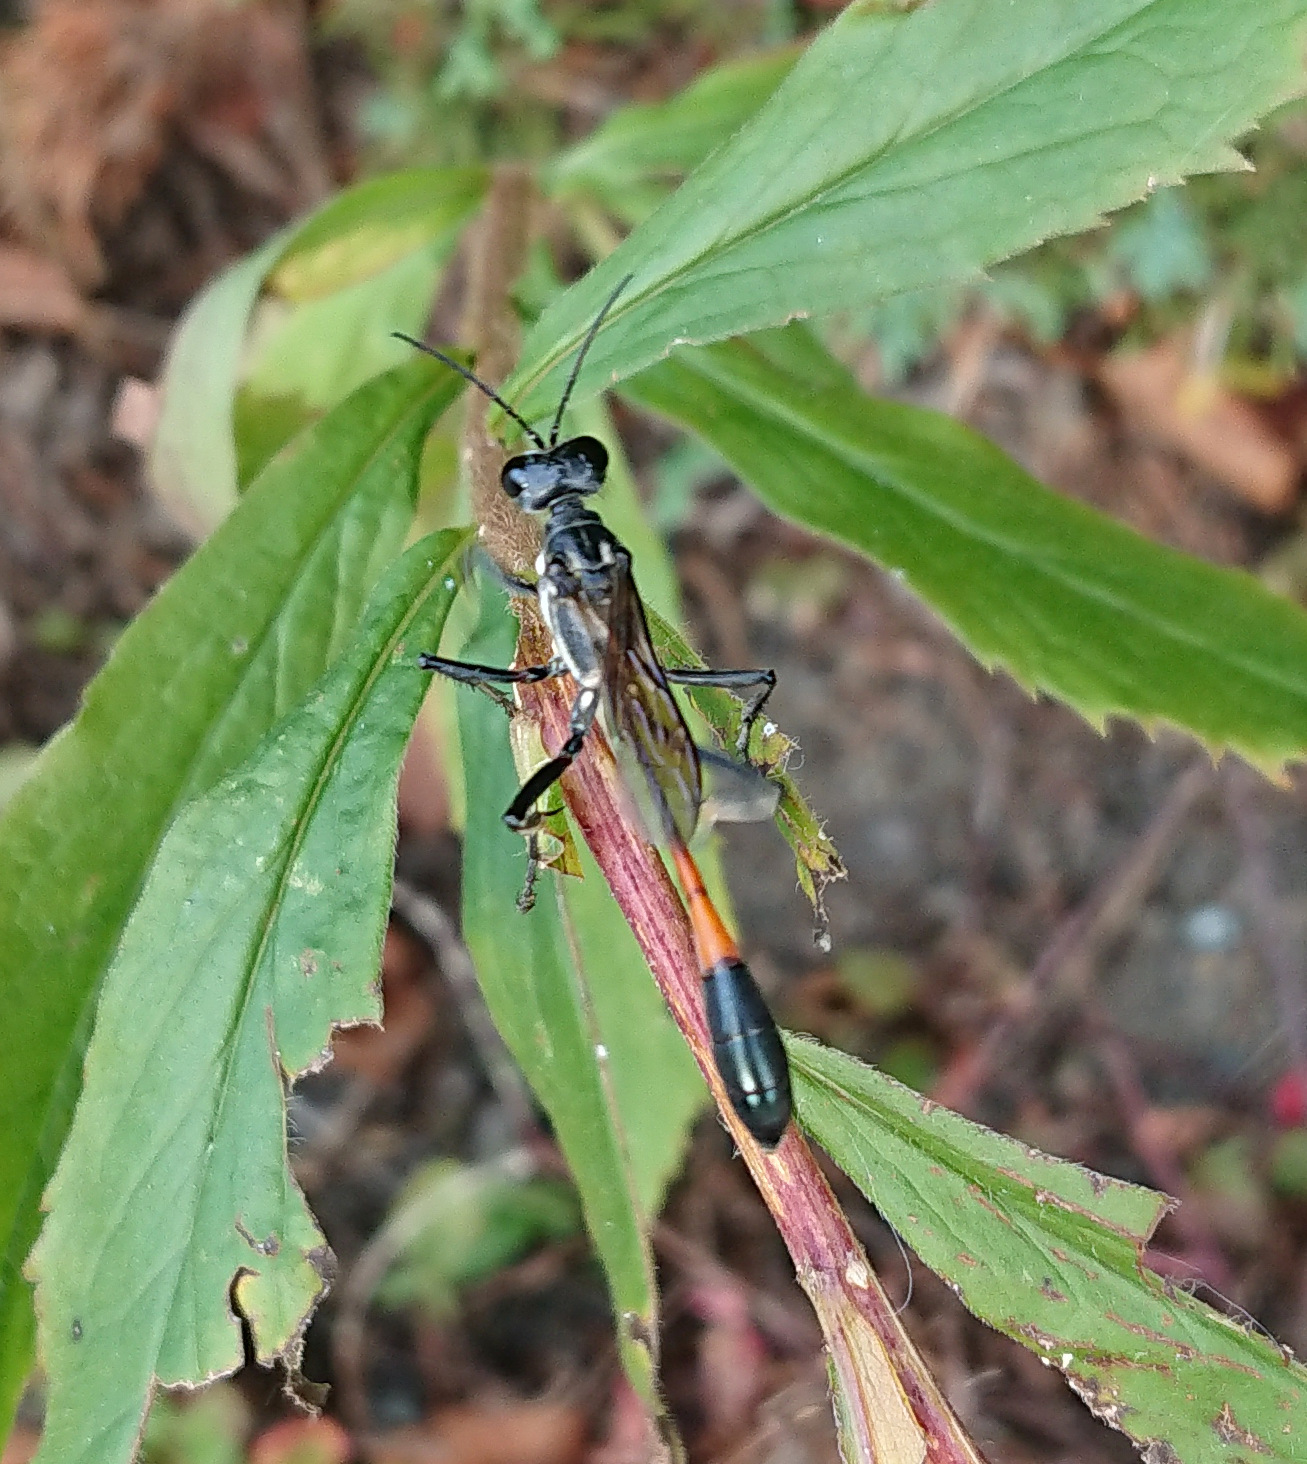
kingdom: Animalia
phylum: Arthropoda
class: Insecta
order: Hymenoptera
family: Sphecidae
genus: Ammophila
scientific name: Ammophila procera
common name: Common thread-waisted wasp
